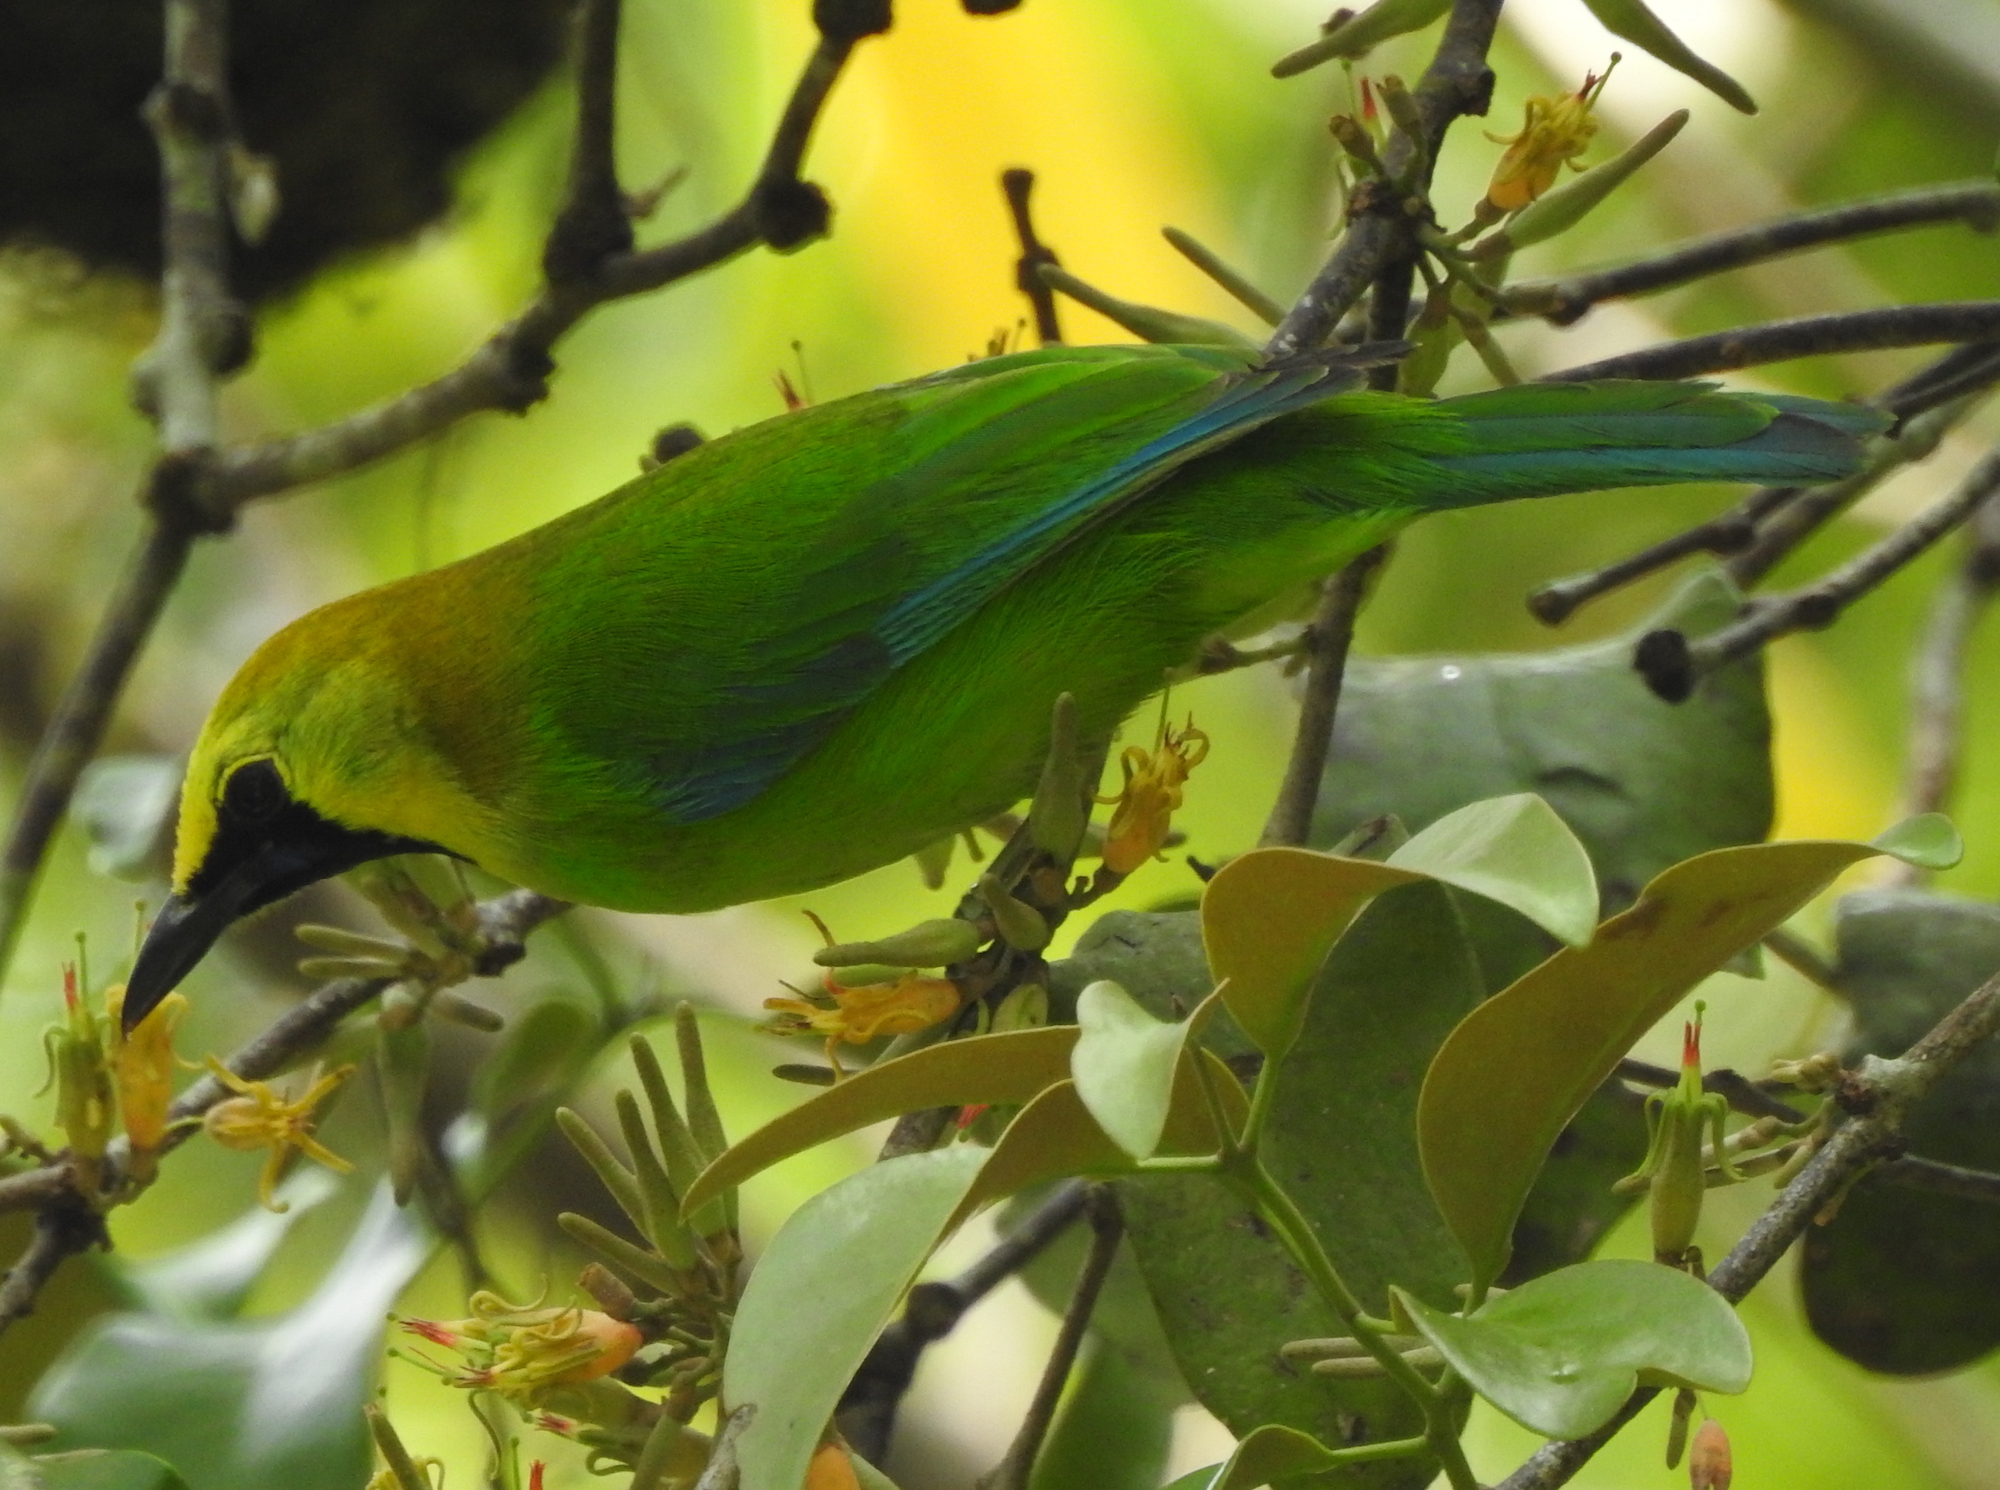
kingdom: Animalia
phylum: Chordata
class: Aves
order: Passeriformes
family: Chloropseidae
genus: Chloropsis
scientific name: Chloropsis moluccensis
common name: Blue-winged leafbird
